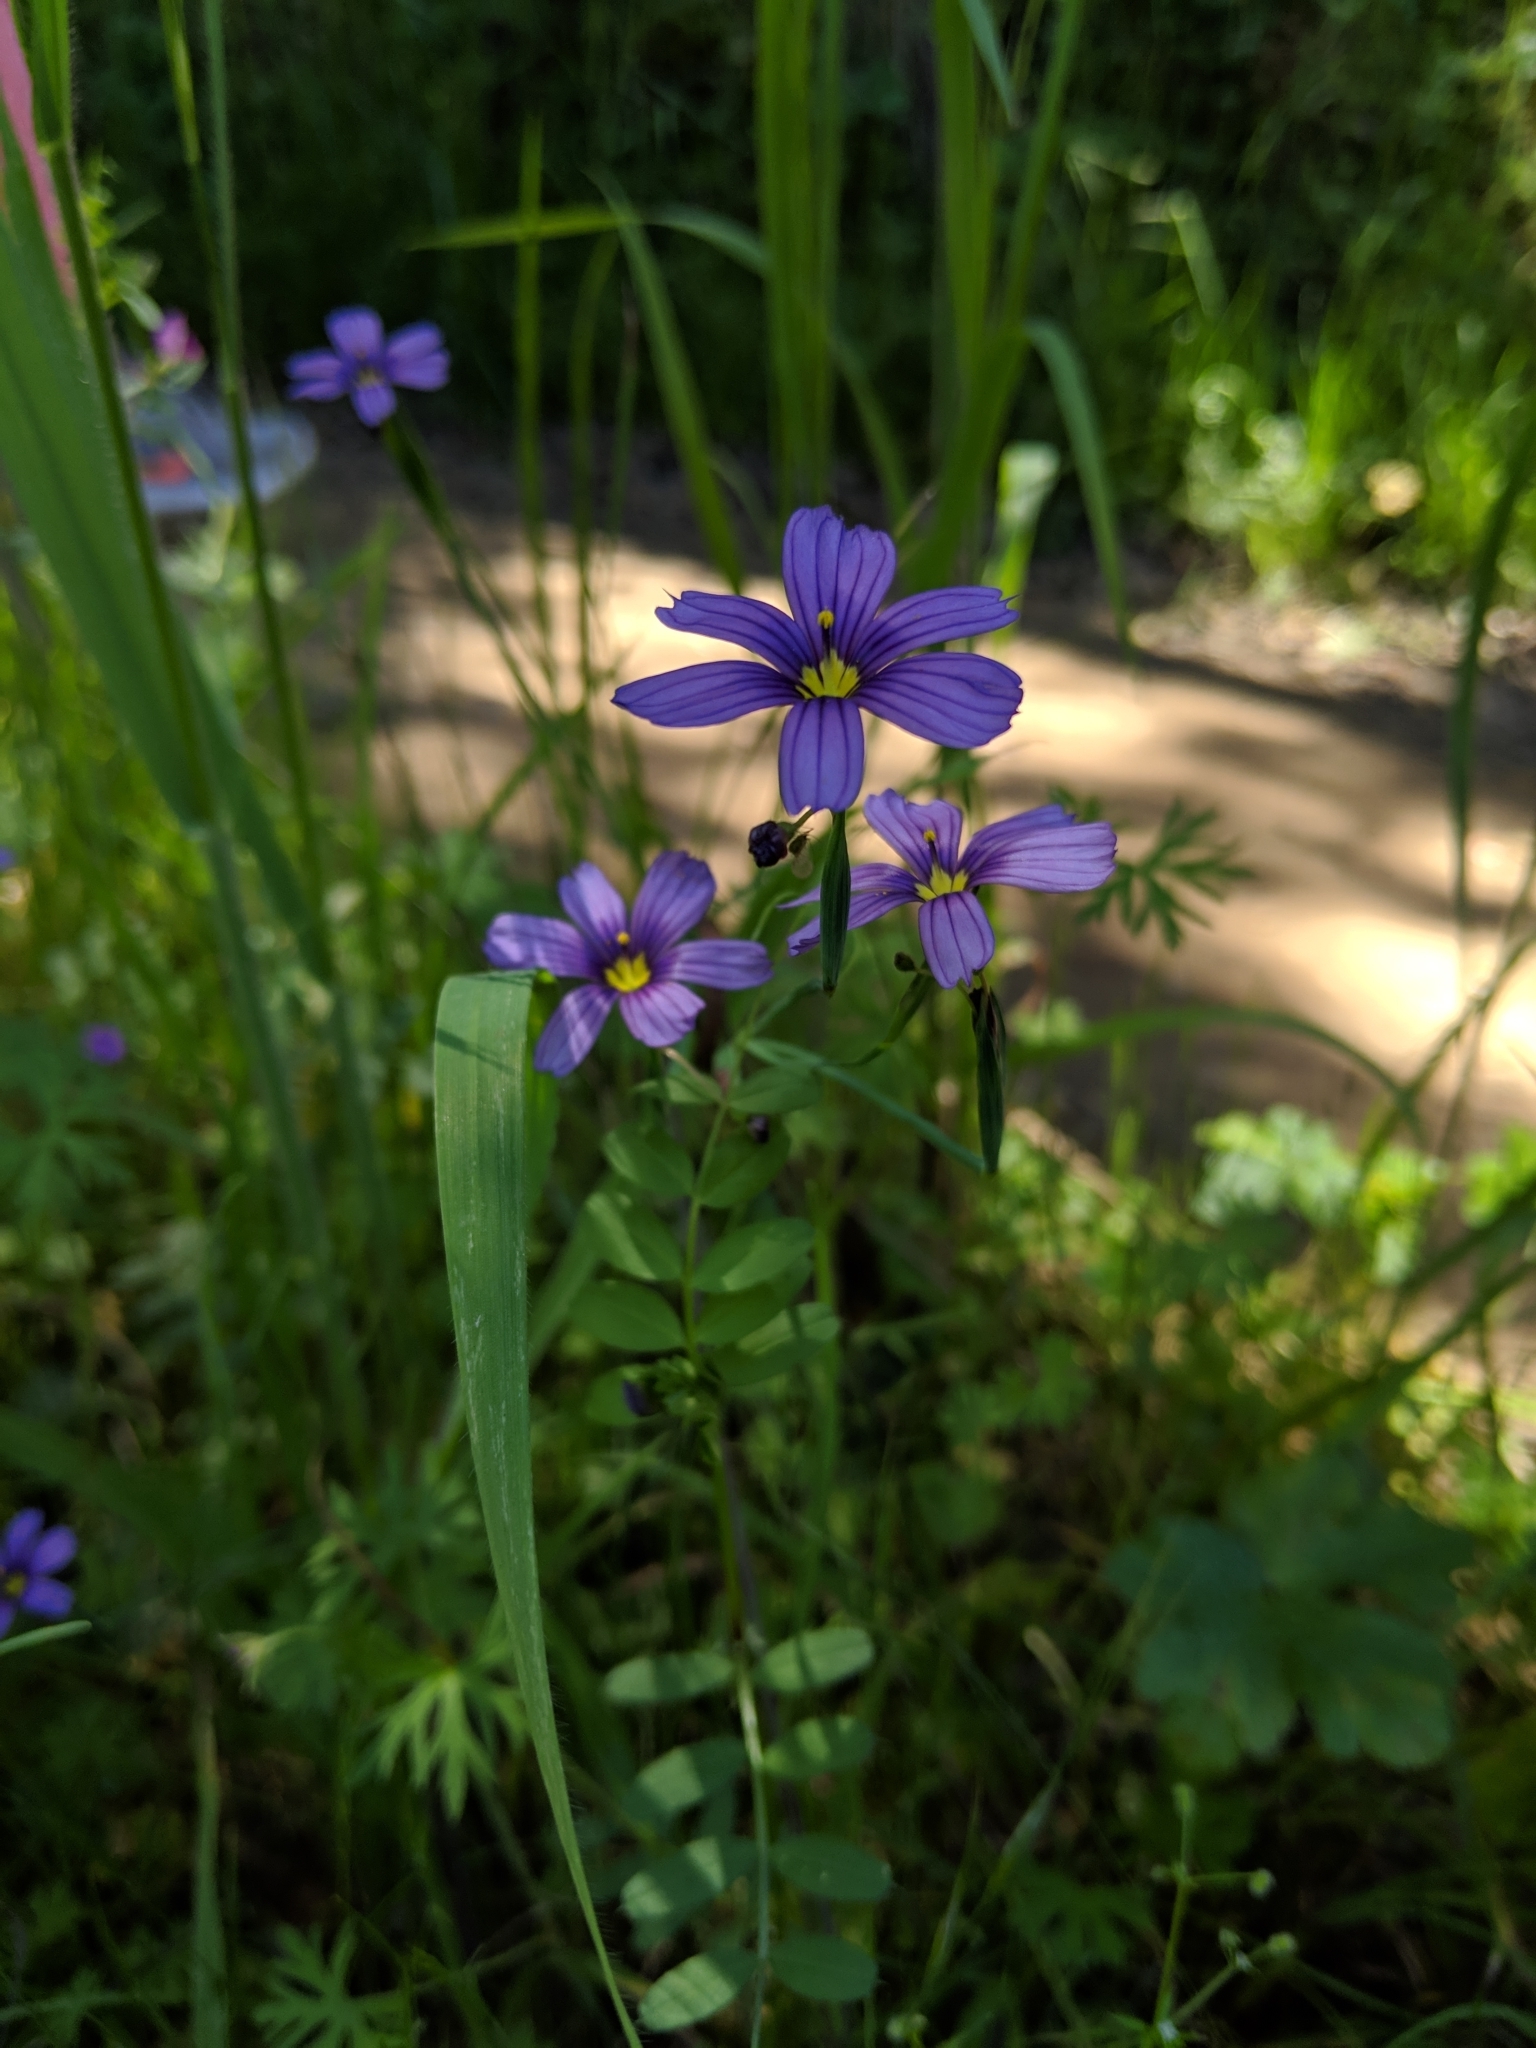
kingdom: Plantae
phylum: Tracheophyta
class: Liliopsida
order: Asparagales
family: Iridaceae
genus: Sisyrinchium
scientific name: Sisyrinchium bellum
